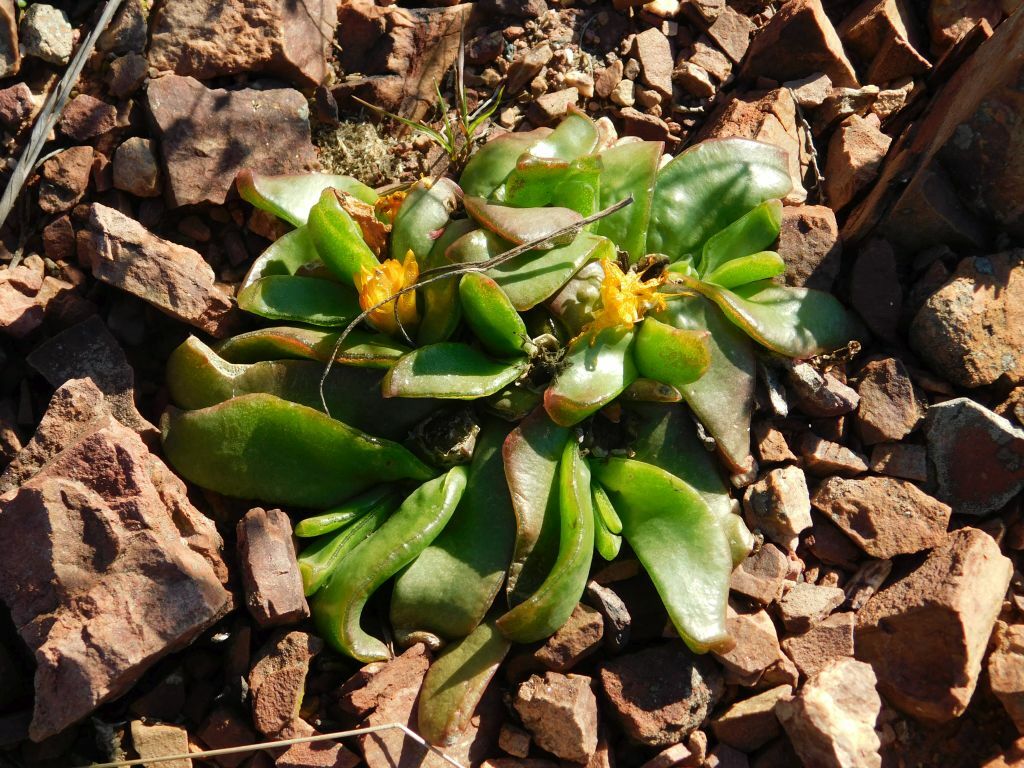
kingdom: Plantae
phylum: Tracheophyta
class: Magnoliopsida
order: Caryophyllales
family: Aizoaceae
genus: Glottiphyllum
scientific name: Glottiphyllum depressum
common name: Fig-marigold
